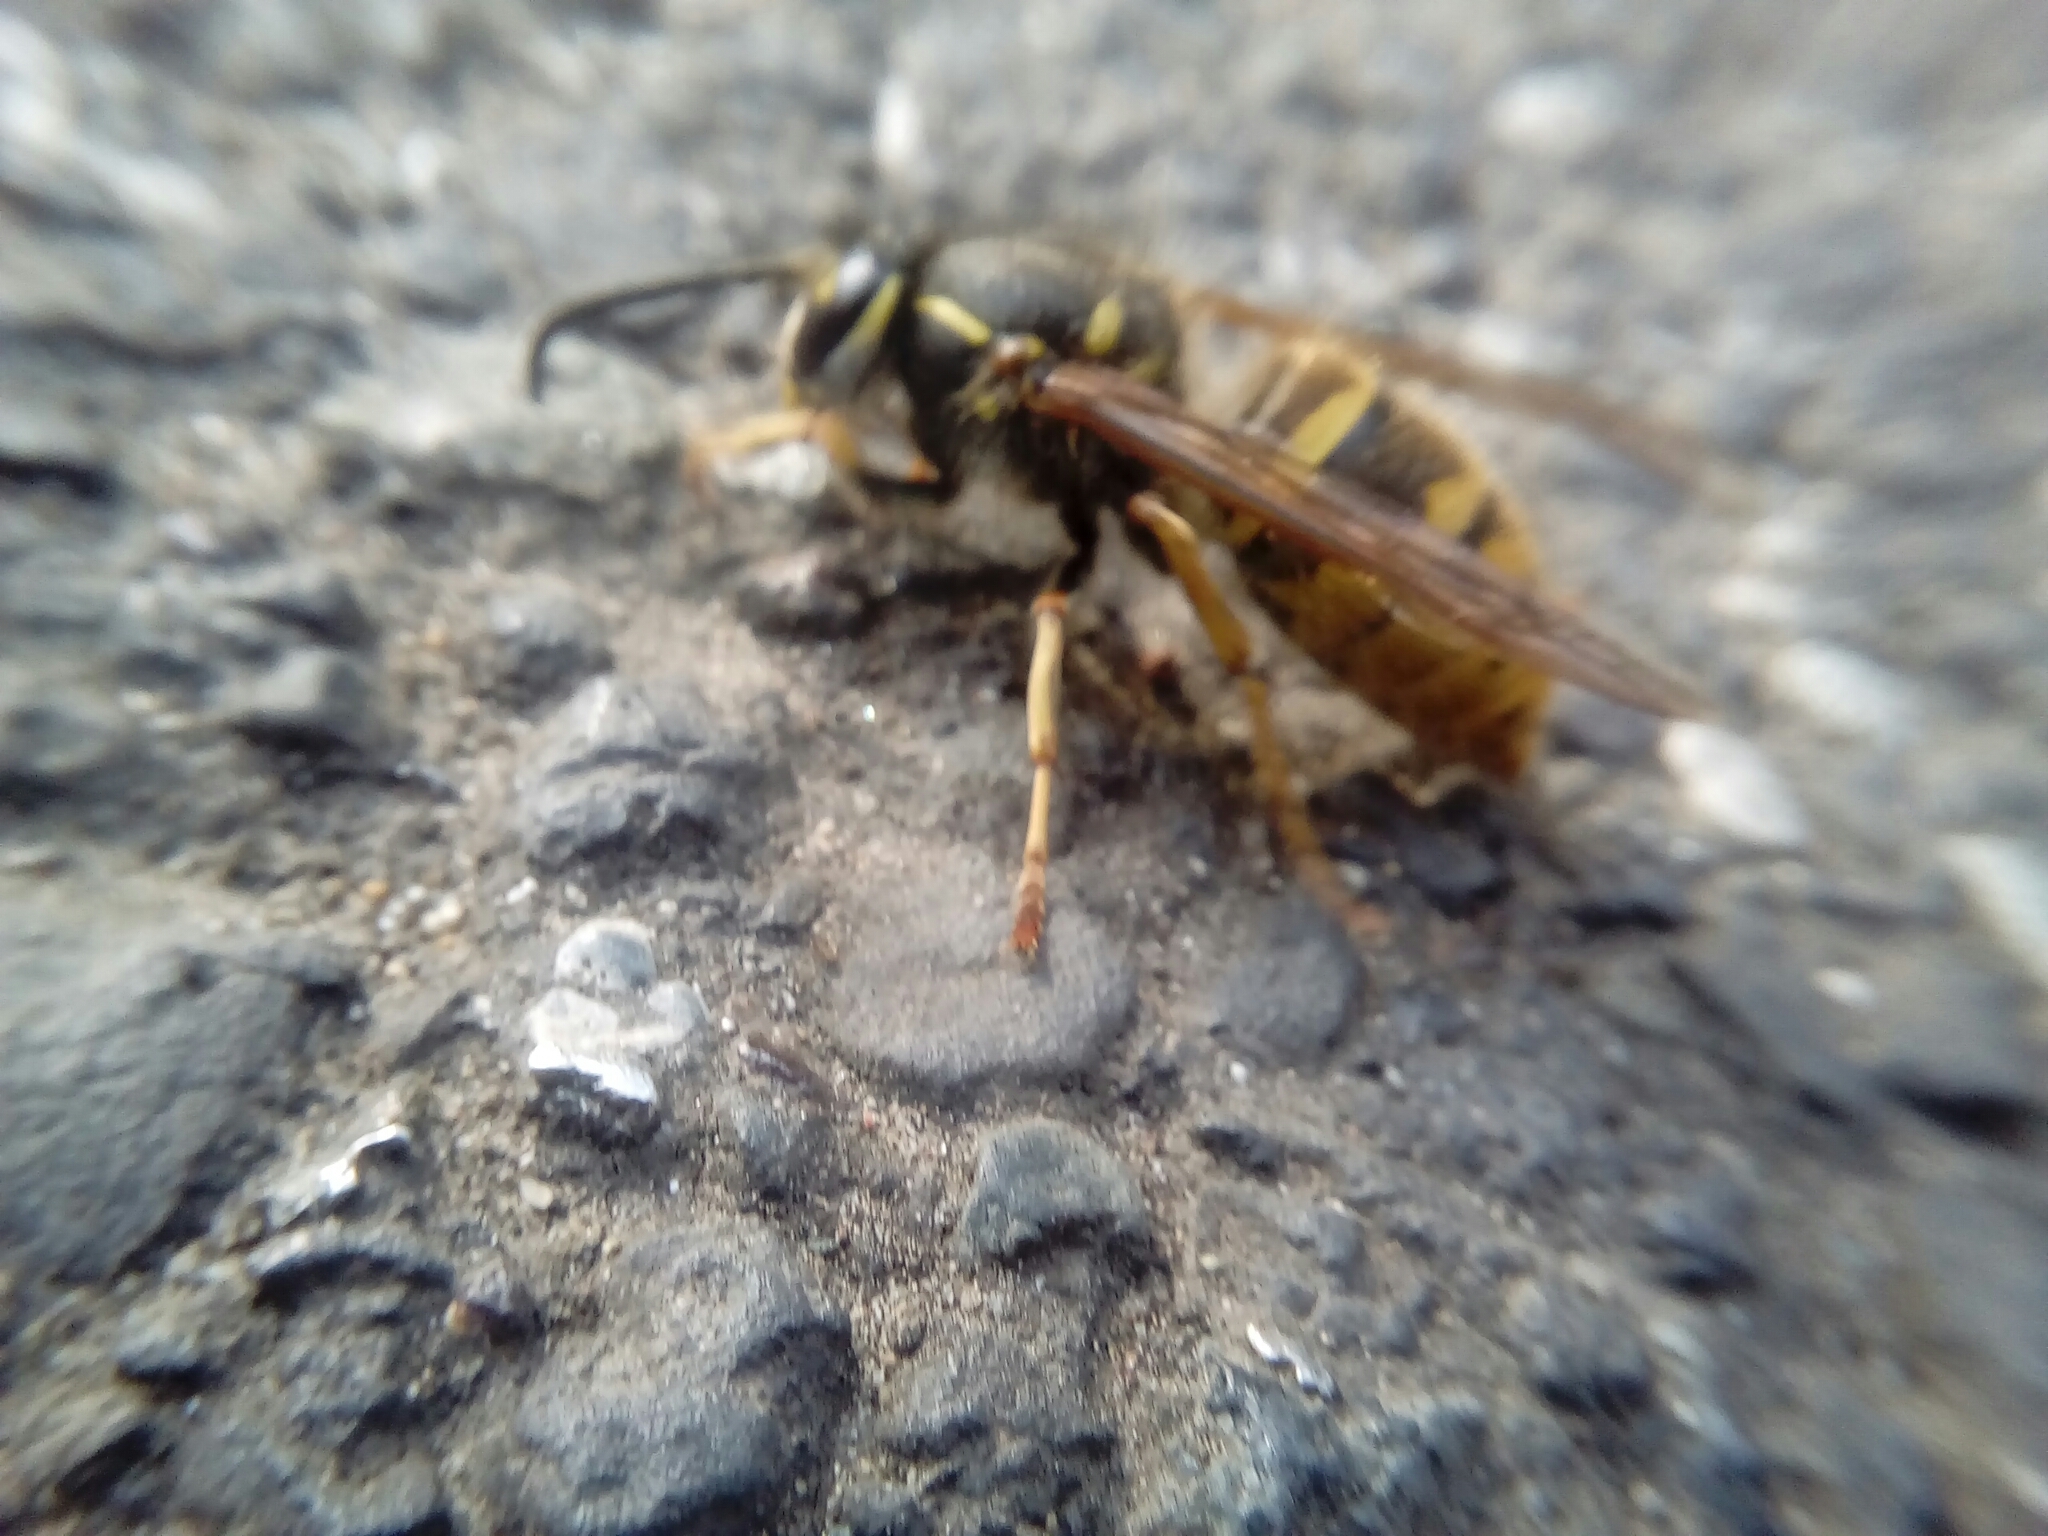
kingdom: Animalia
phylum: Arthropoda
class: Insecta
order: Hymenoptera
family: Vespidae
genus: Vespula
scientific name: Vespula vulgaris
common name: Common wasp
